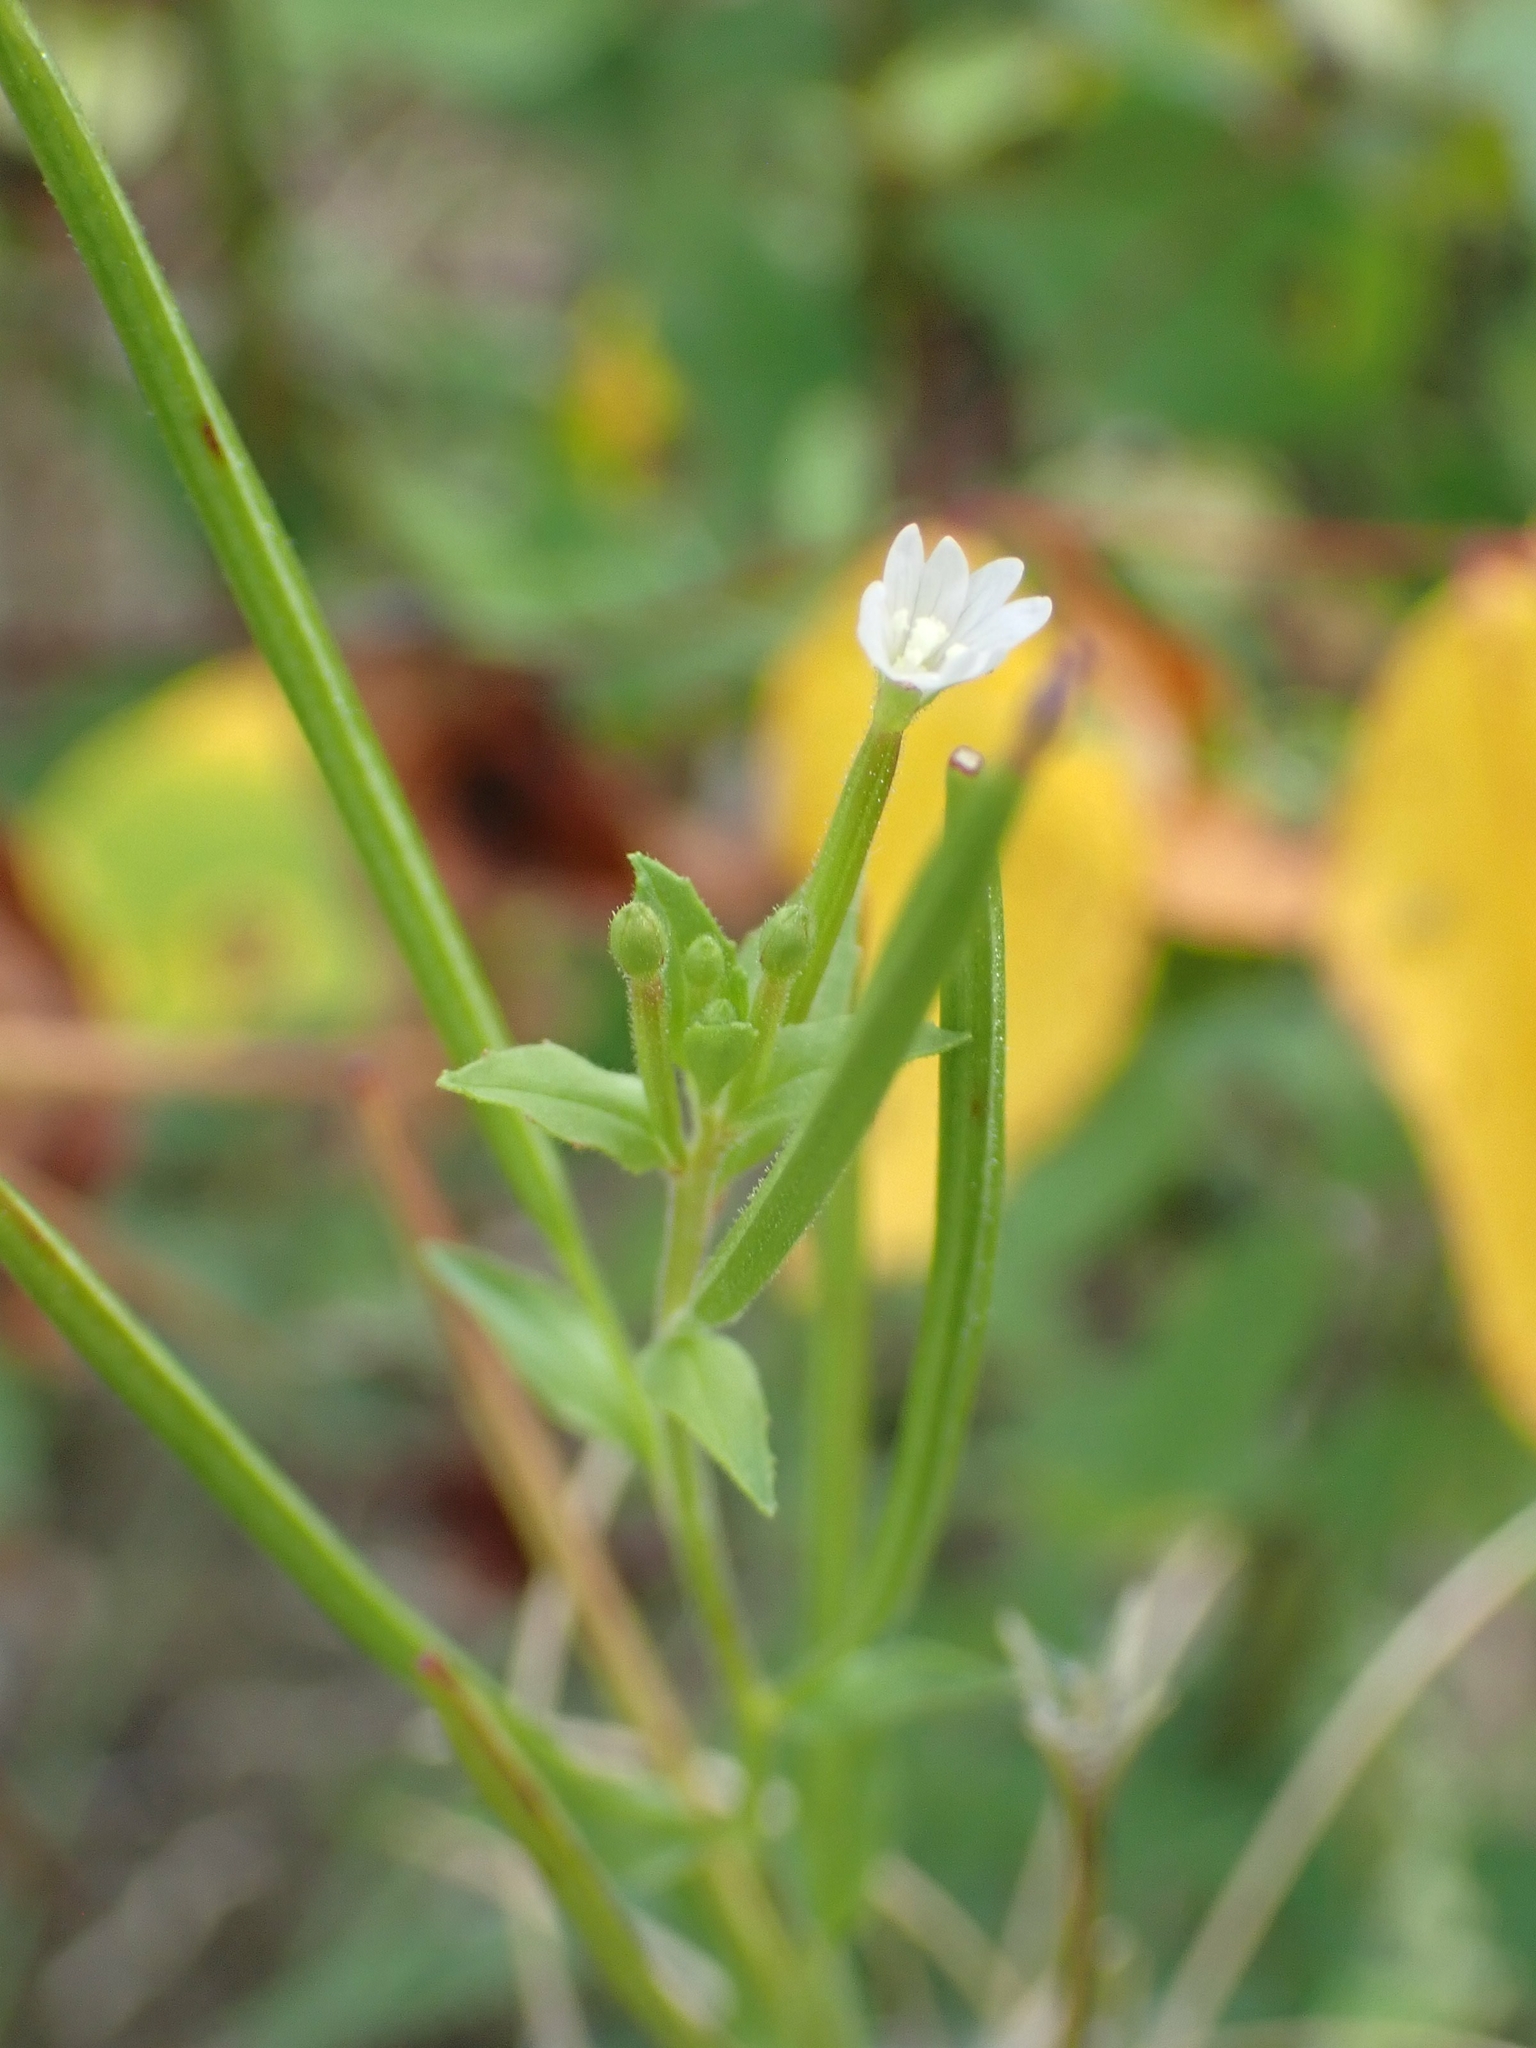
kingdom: Plantae
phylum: Tracheophyta
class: Magnoliopsida
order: Myrtales
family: Onagraceae
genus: Epilobium
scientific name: Epilobium ciliatum
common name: American willowherb
